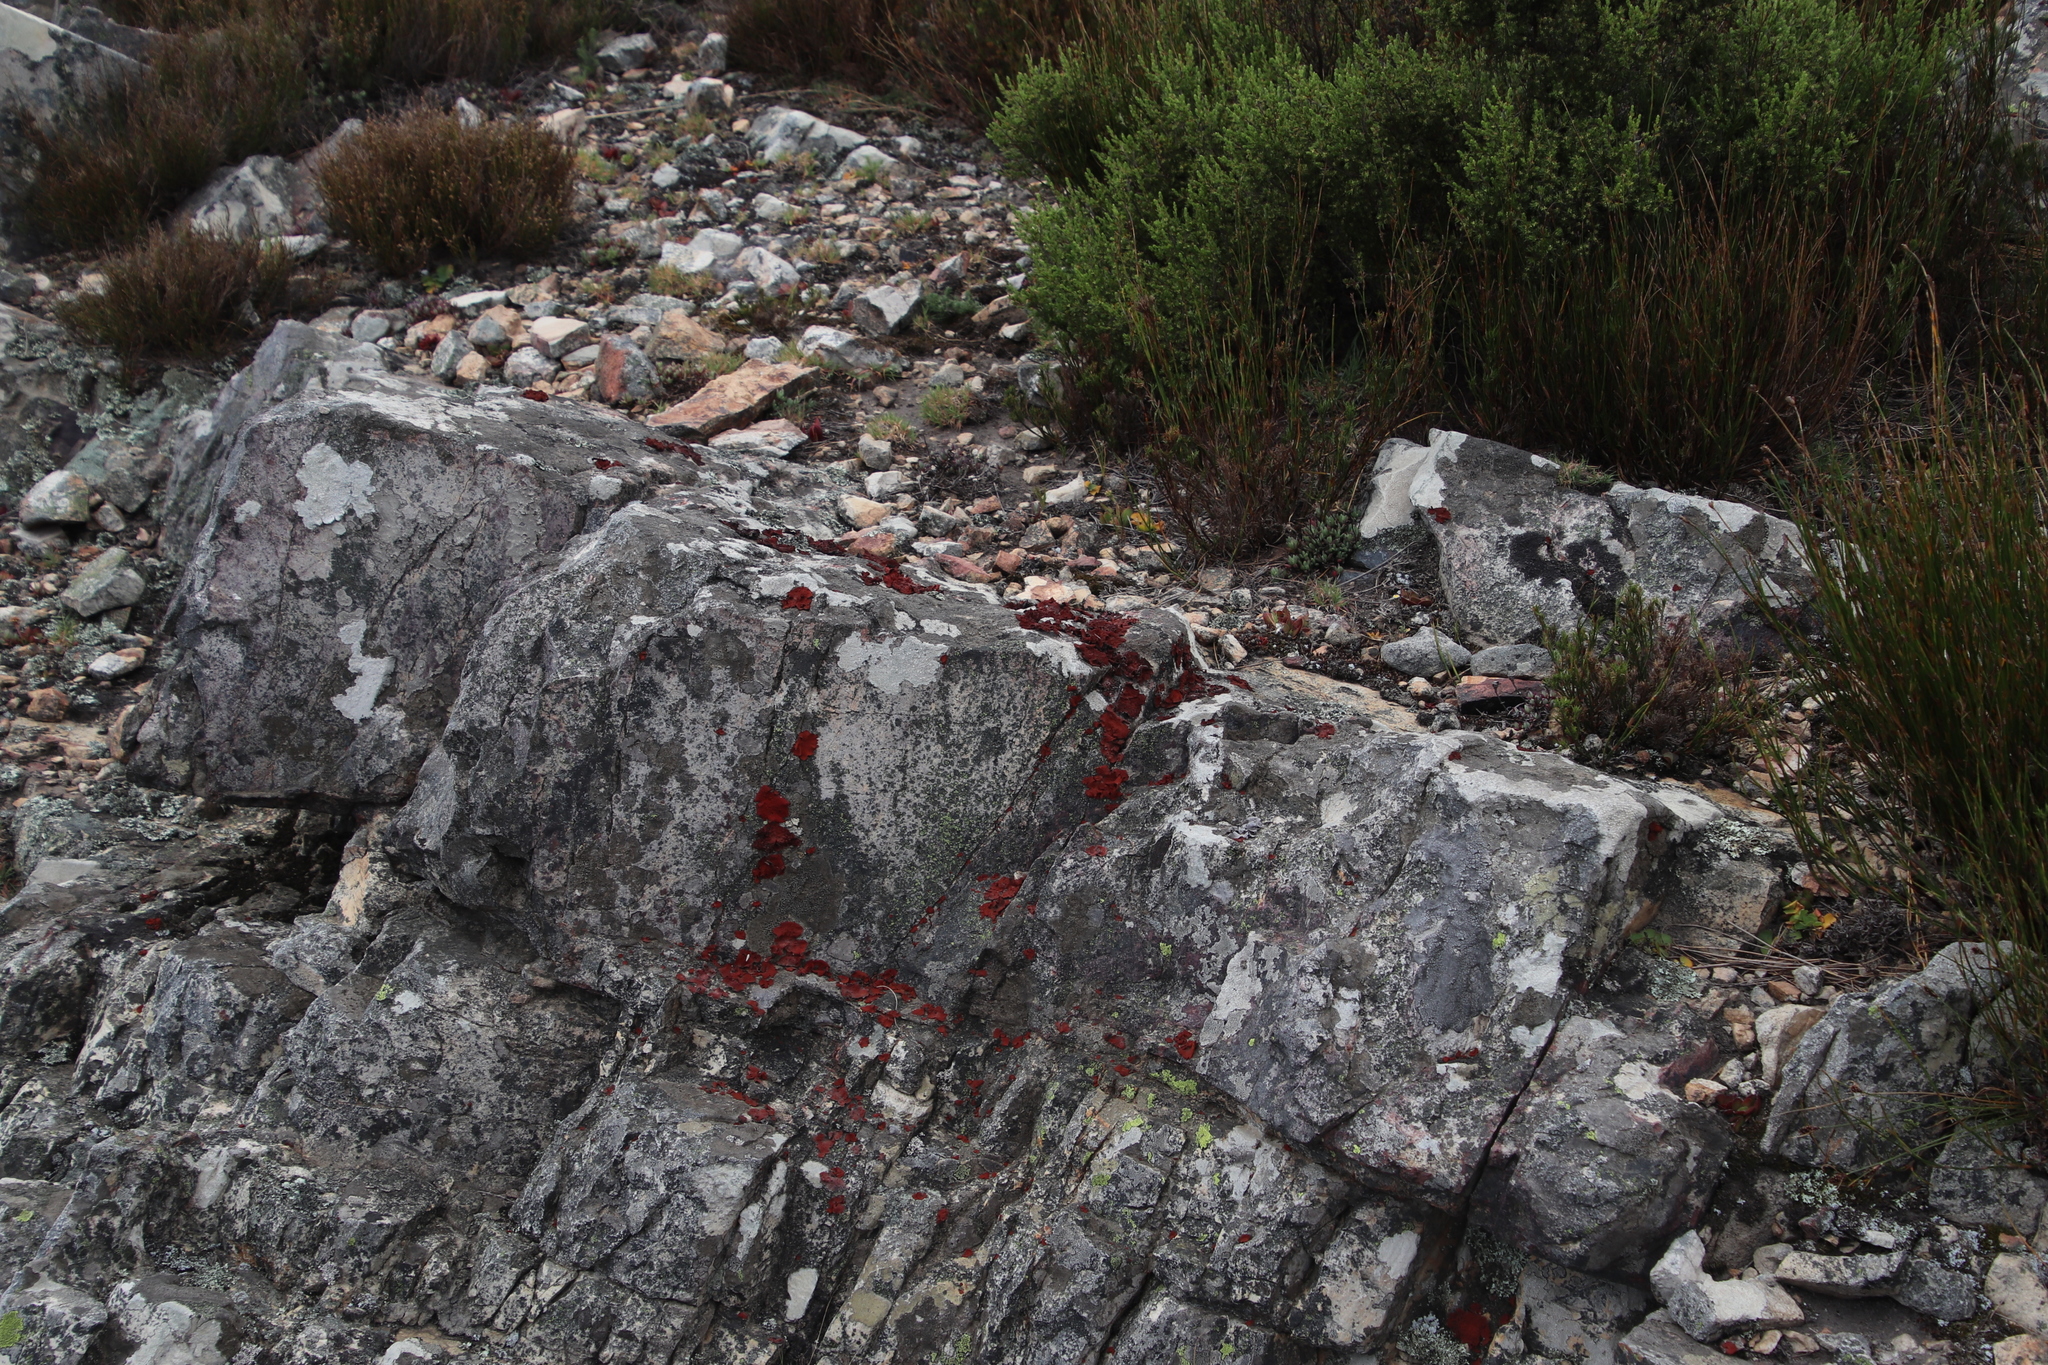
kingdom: Fungi
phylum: Ascomycota
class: Lecanoromycetes
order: Umbilicariales
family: Umbilicariaceae
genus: Lasallia
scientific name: Lasallia rubiginosa
